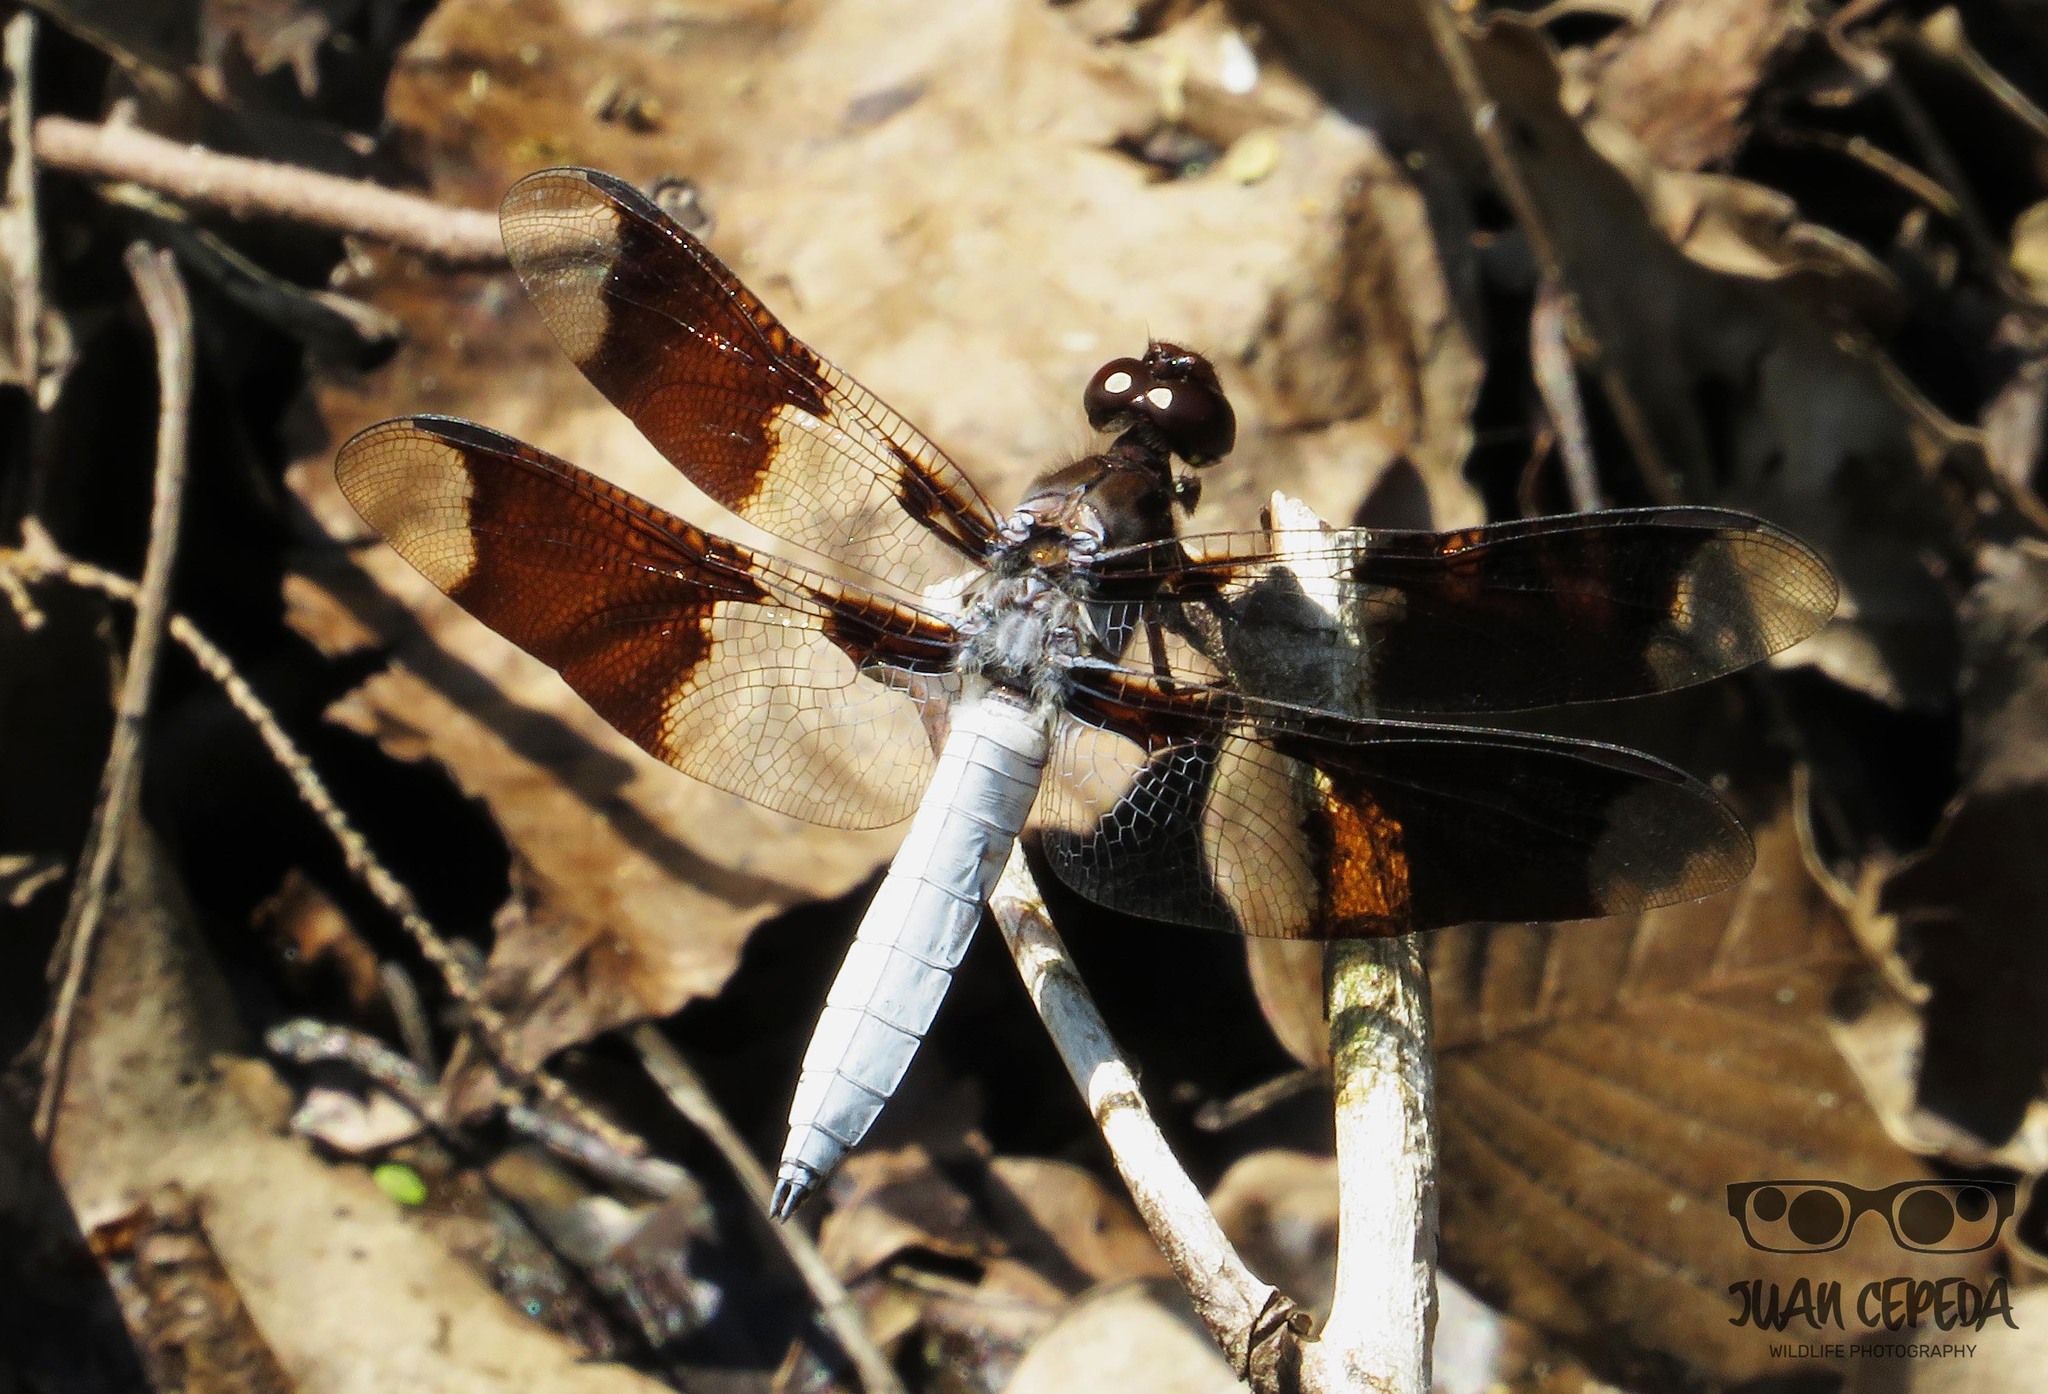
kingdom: Animalia
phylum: Arthropoda
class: Insecta
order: Odonata
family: Libellulidae
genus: Plathemis
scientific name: Plathemis lydia
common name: Common whitetail
